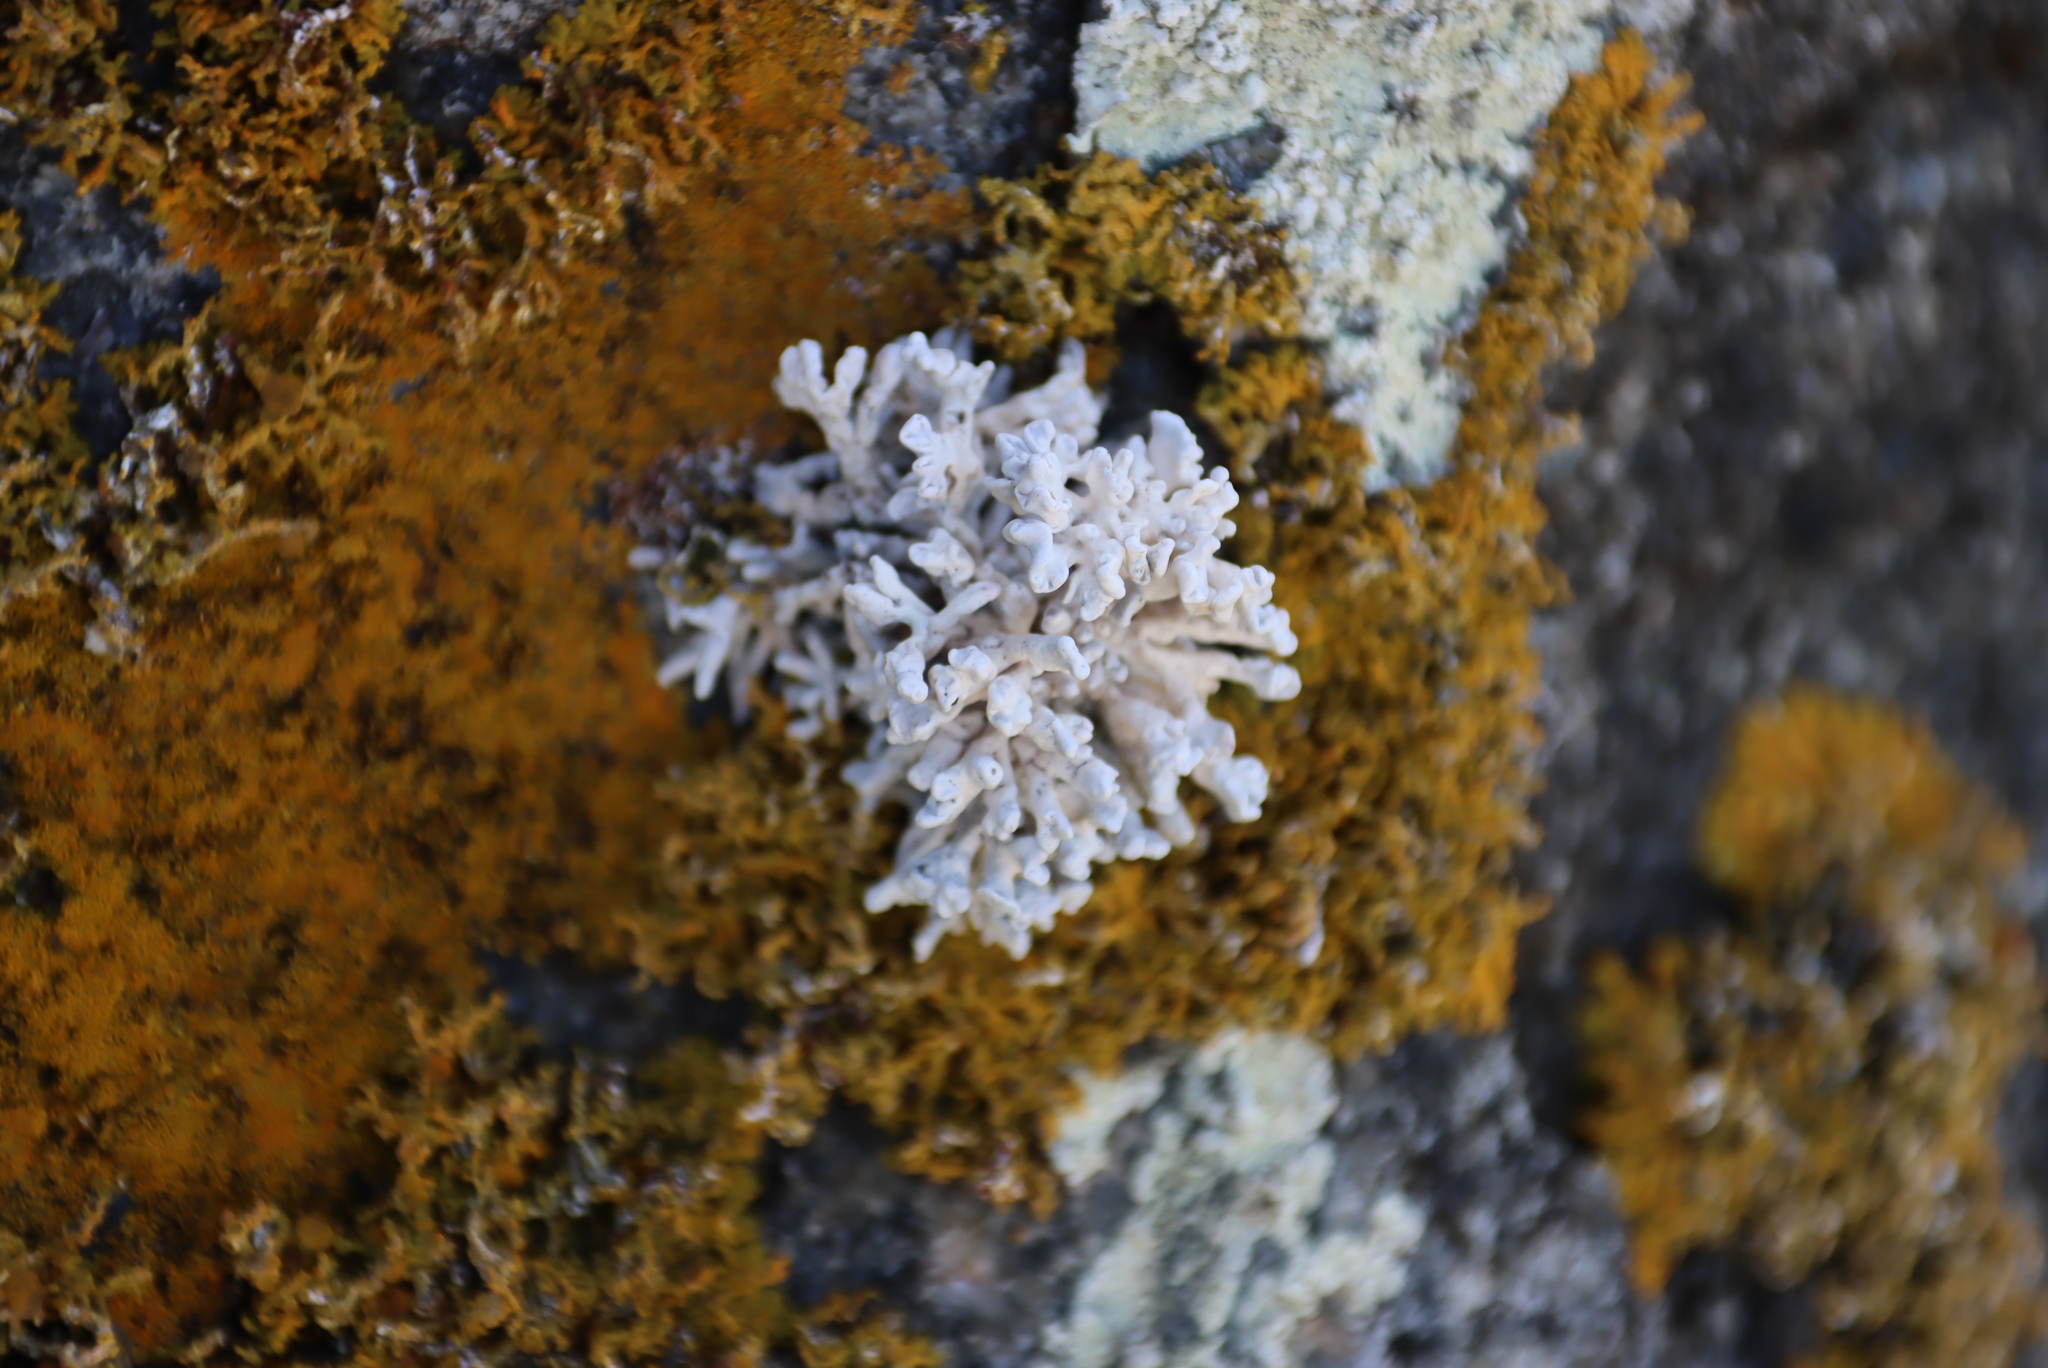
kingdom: Fungi
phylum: Ascomycota
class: Arthoniomycetes
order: Arthoniales
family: Opegraphaceae
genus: Combea
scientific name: Combea mollusca
